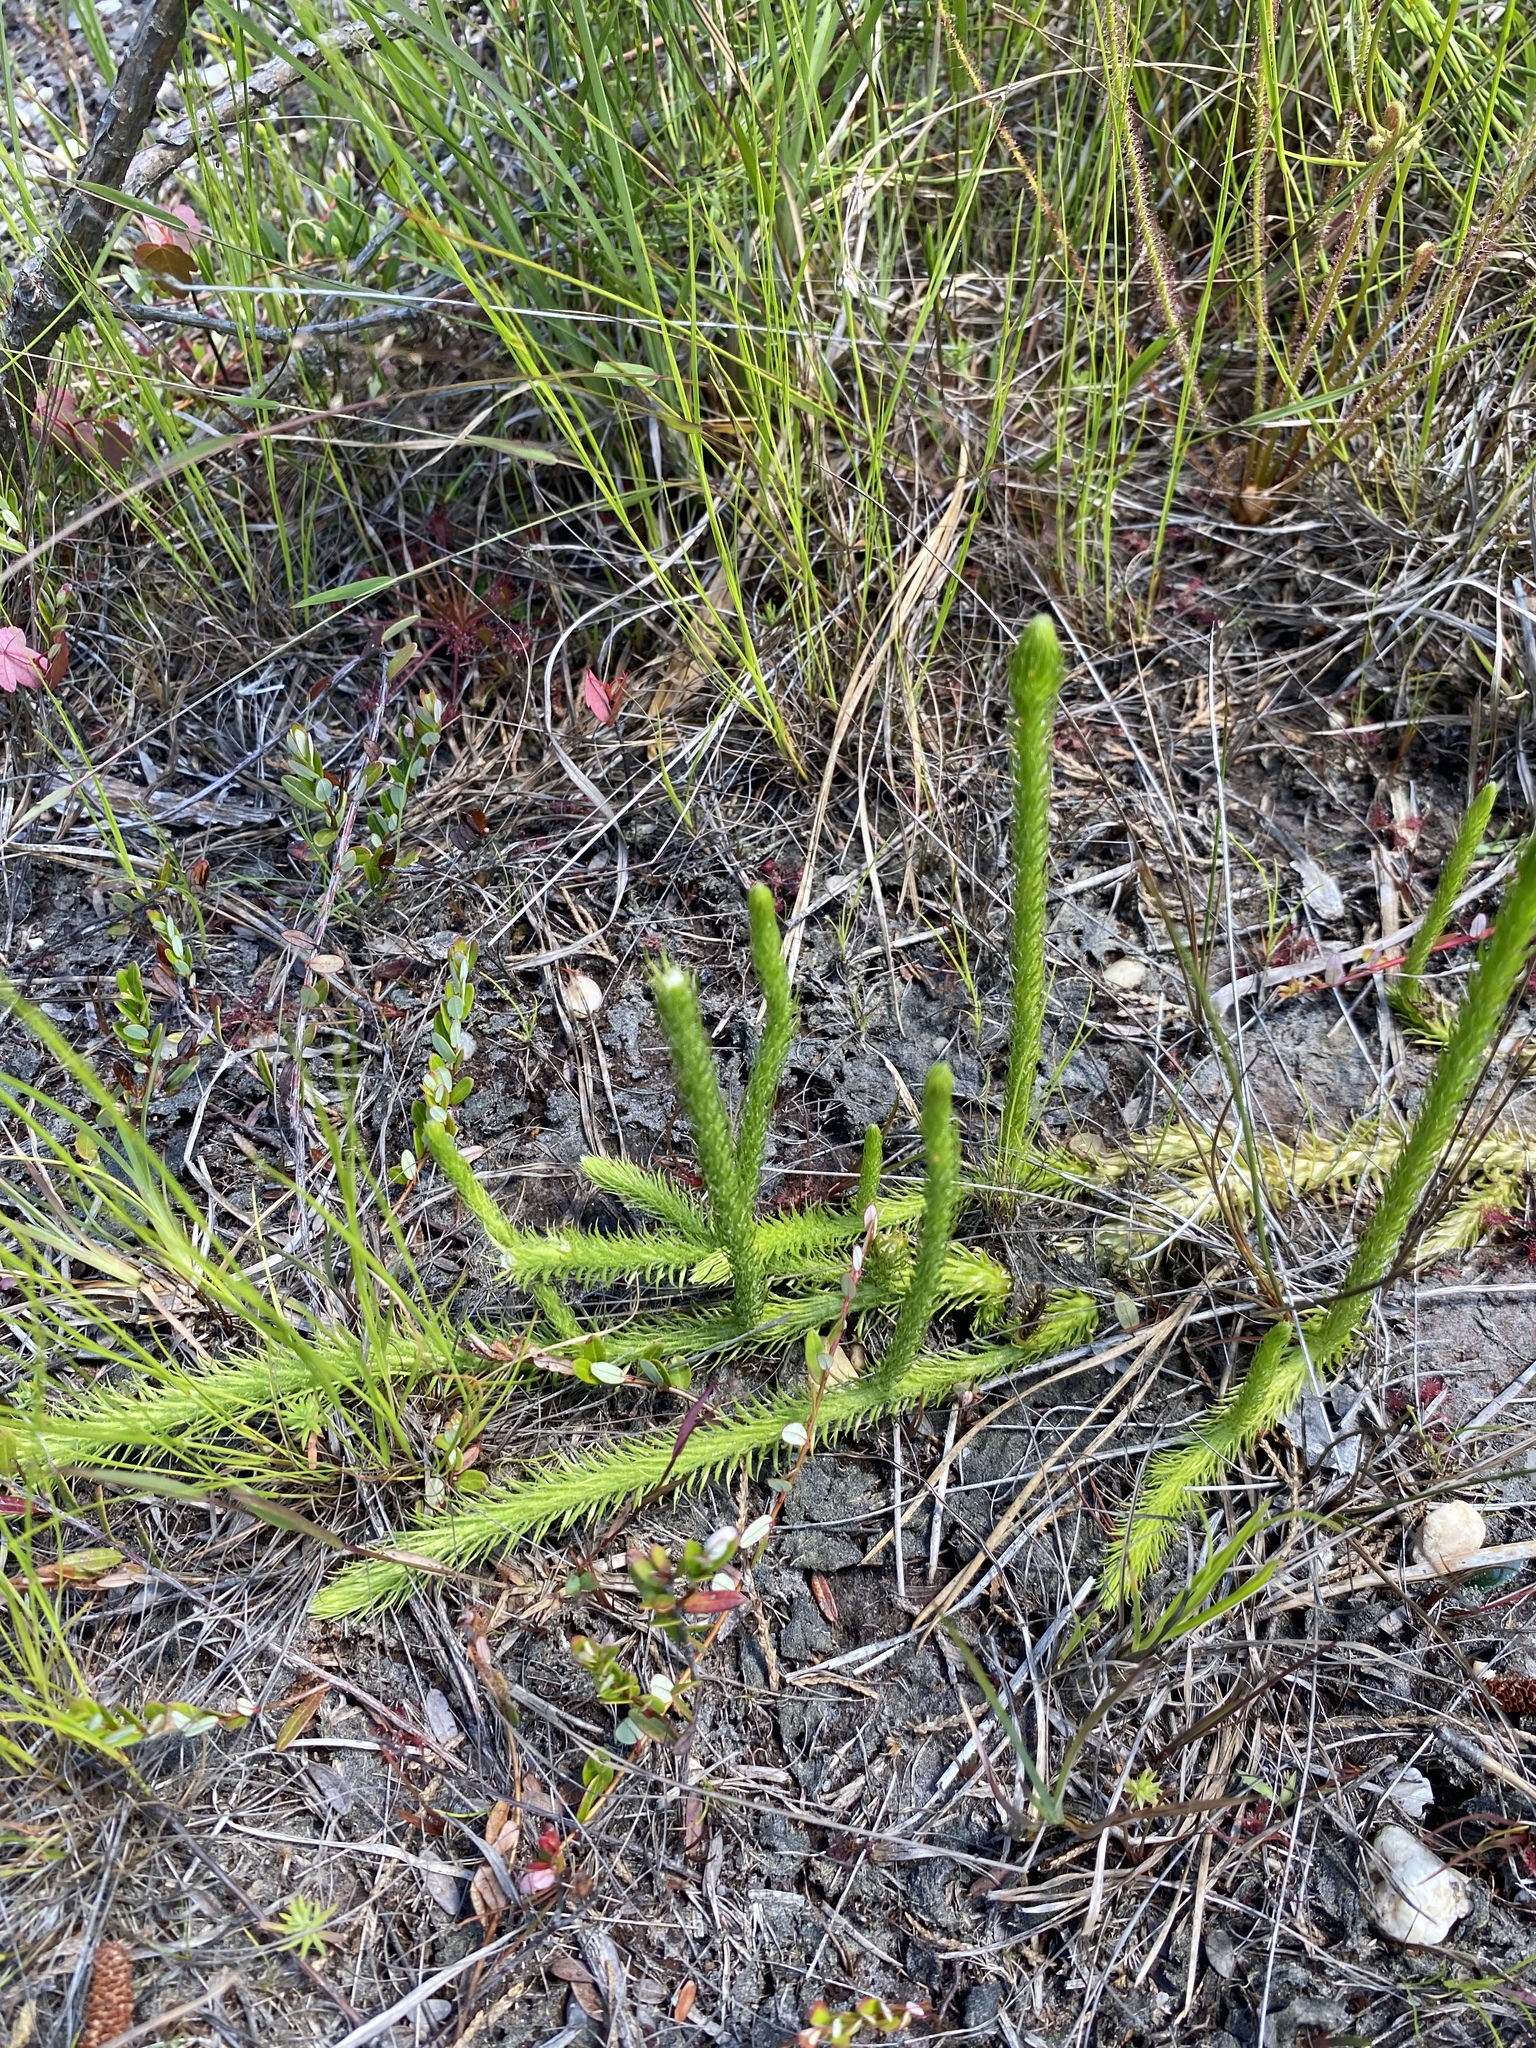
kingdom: Plantae
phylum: Tracheophyta
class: Lycopodiopsida
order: Lycopodiales
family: Lycopodiaceae
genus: Lycopodiella
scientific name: Lycopodiella alopecuroides
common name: Foxtail clubmoss
